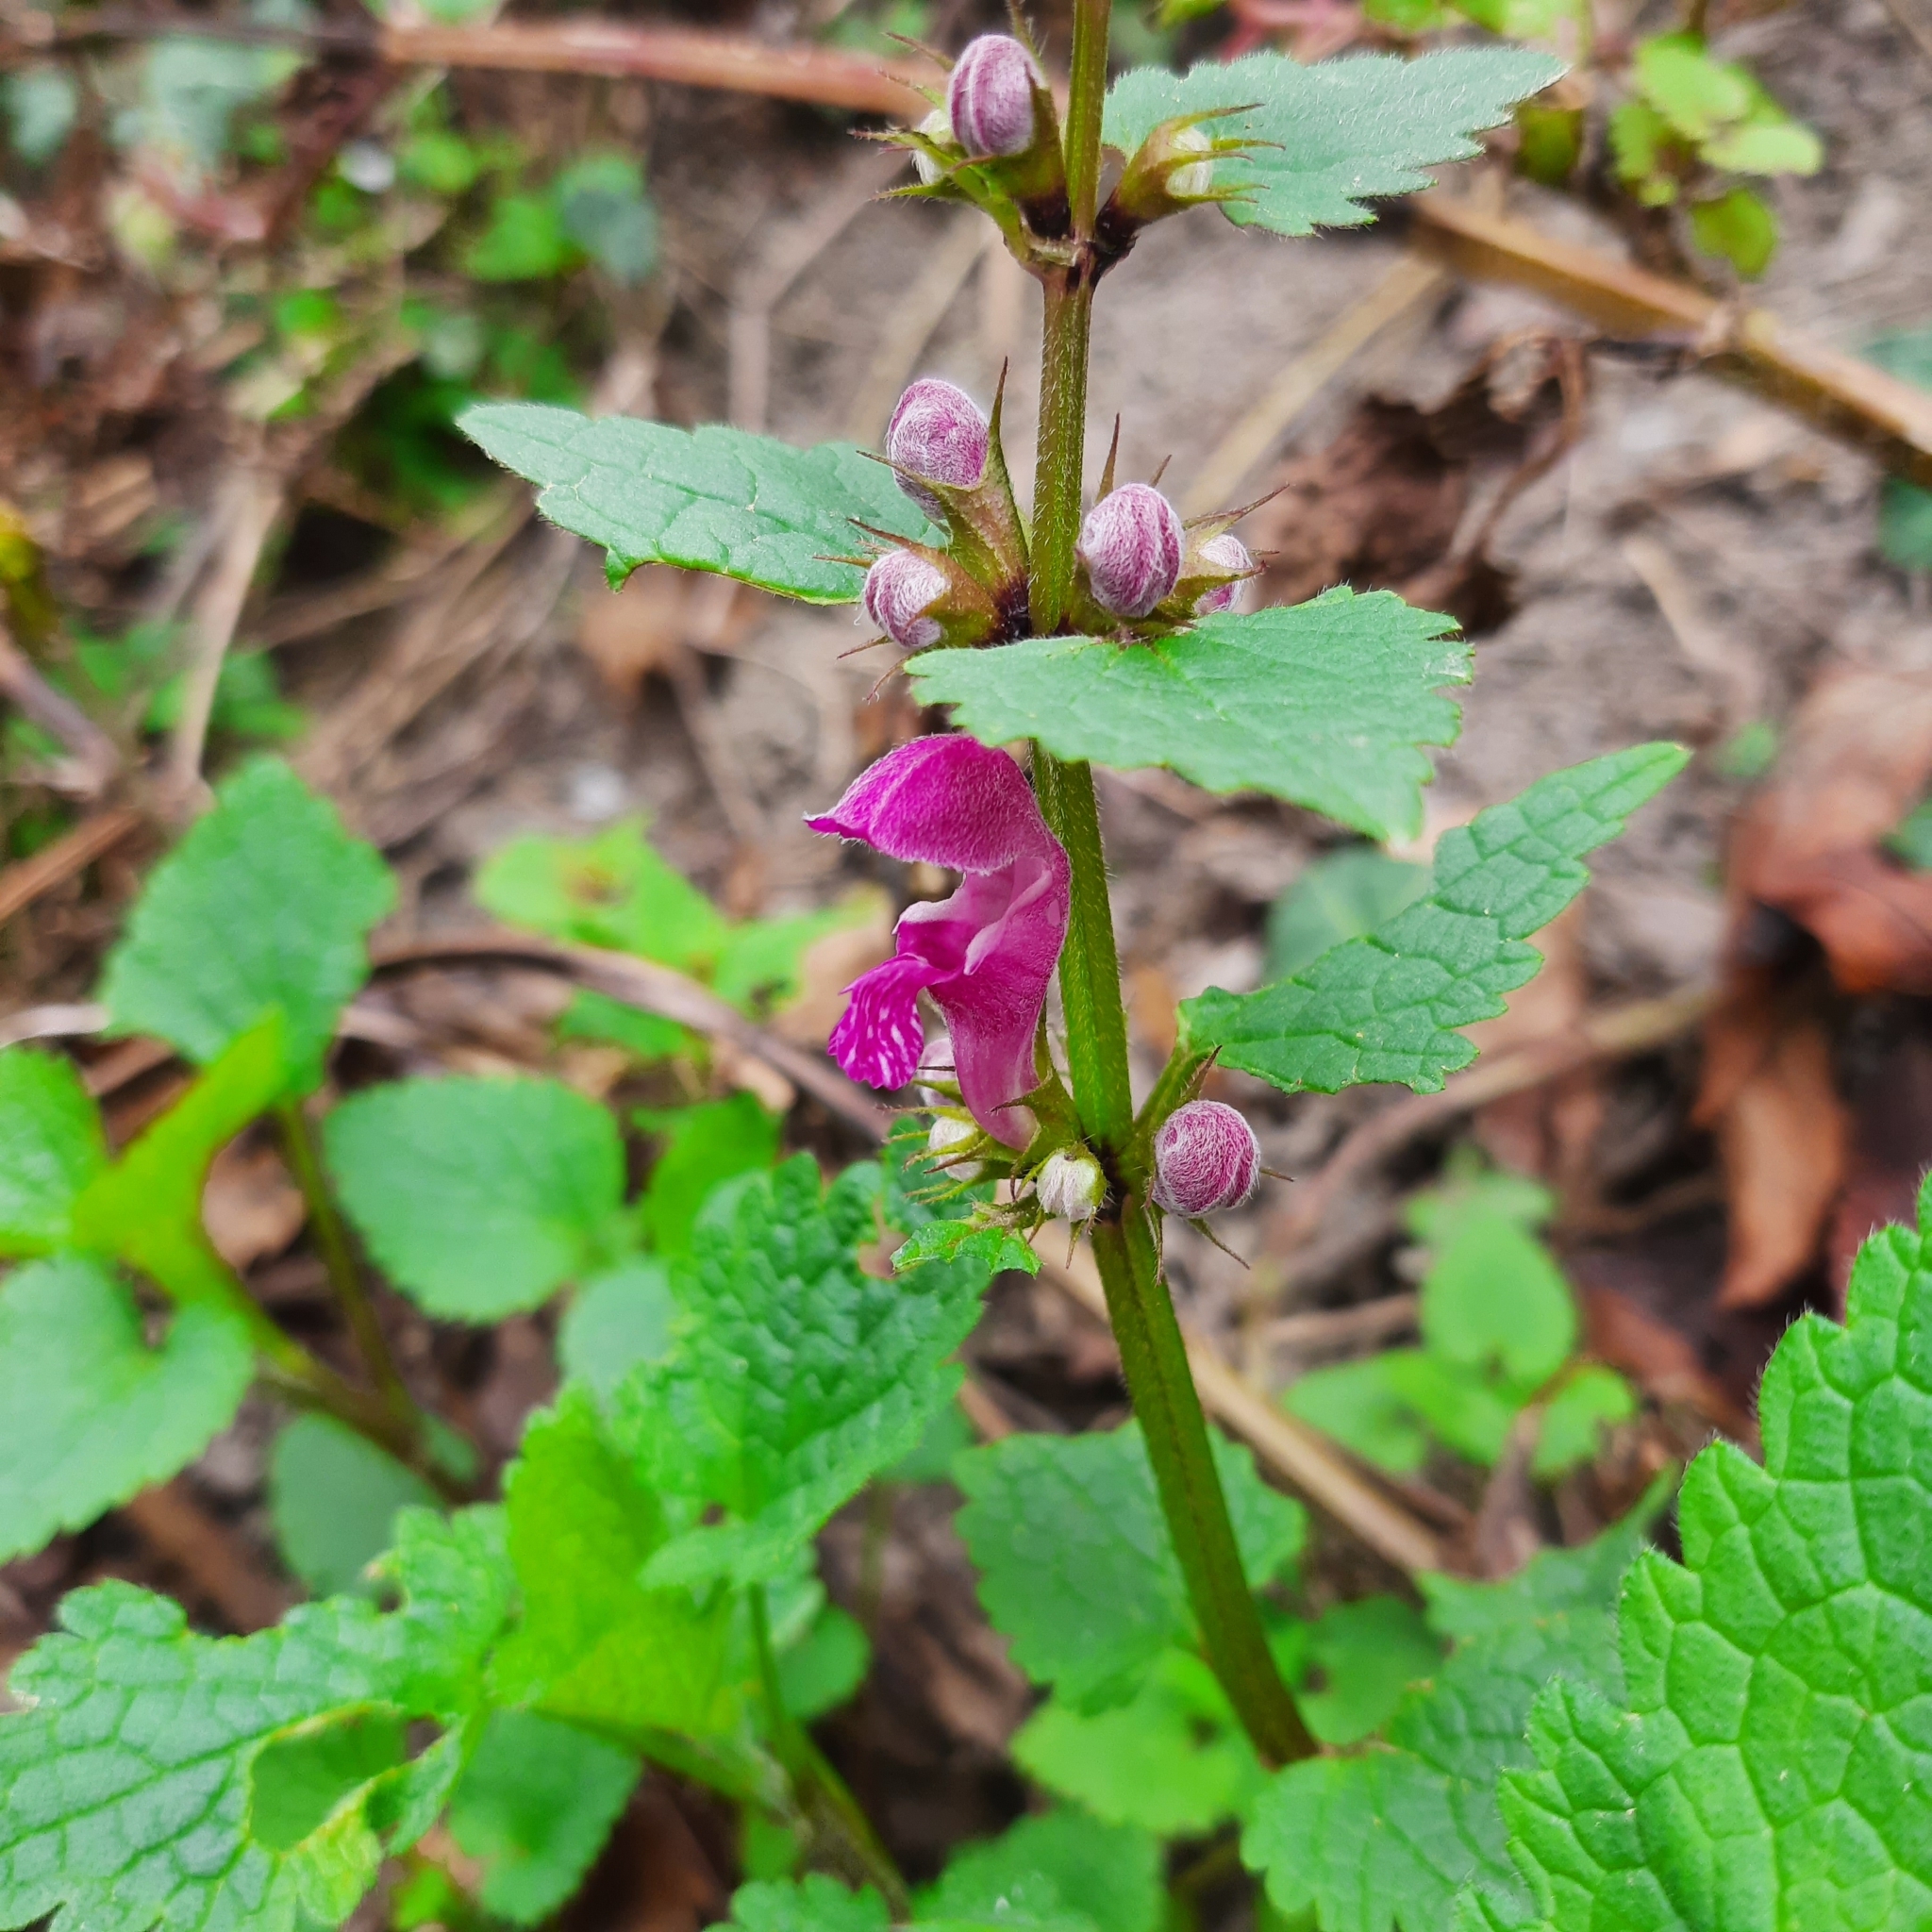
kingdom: Plantae
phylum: Tracheophyta
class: Magnoliopsida
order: Lamiales
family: Lamiaceae
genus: Lamium
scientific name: Lamium maculatum
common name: Spotted dead-nettle
